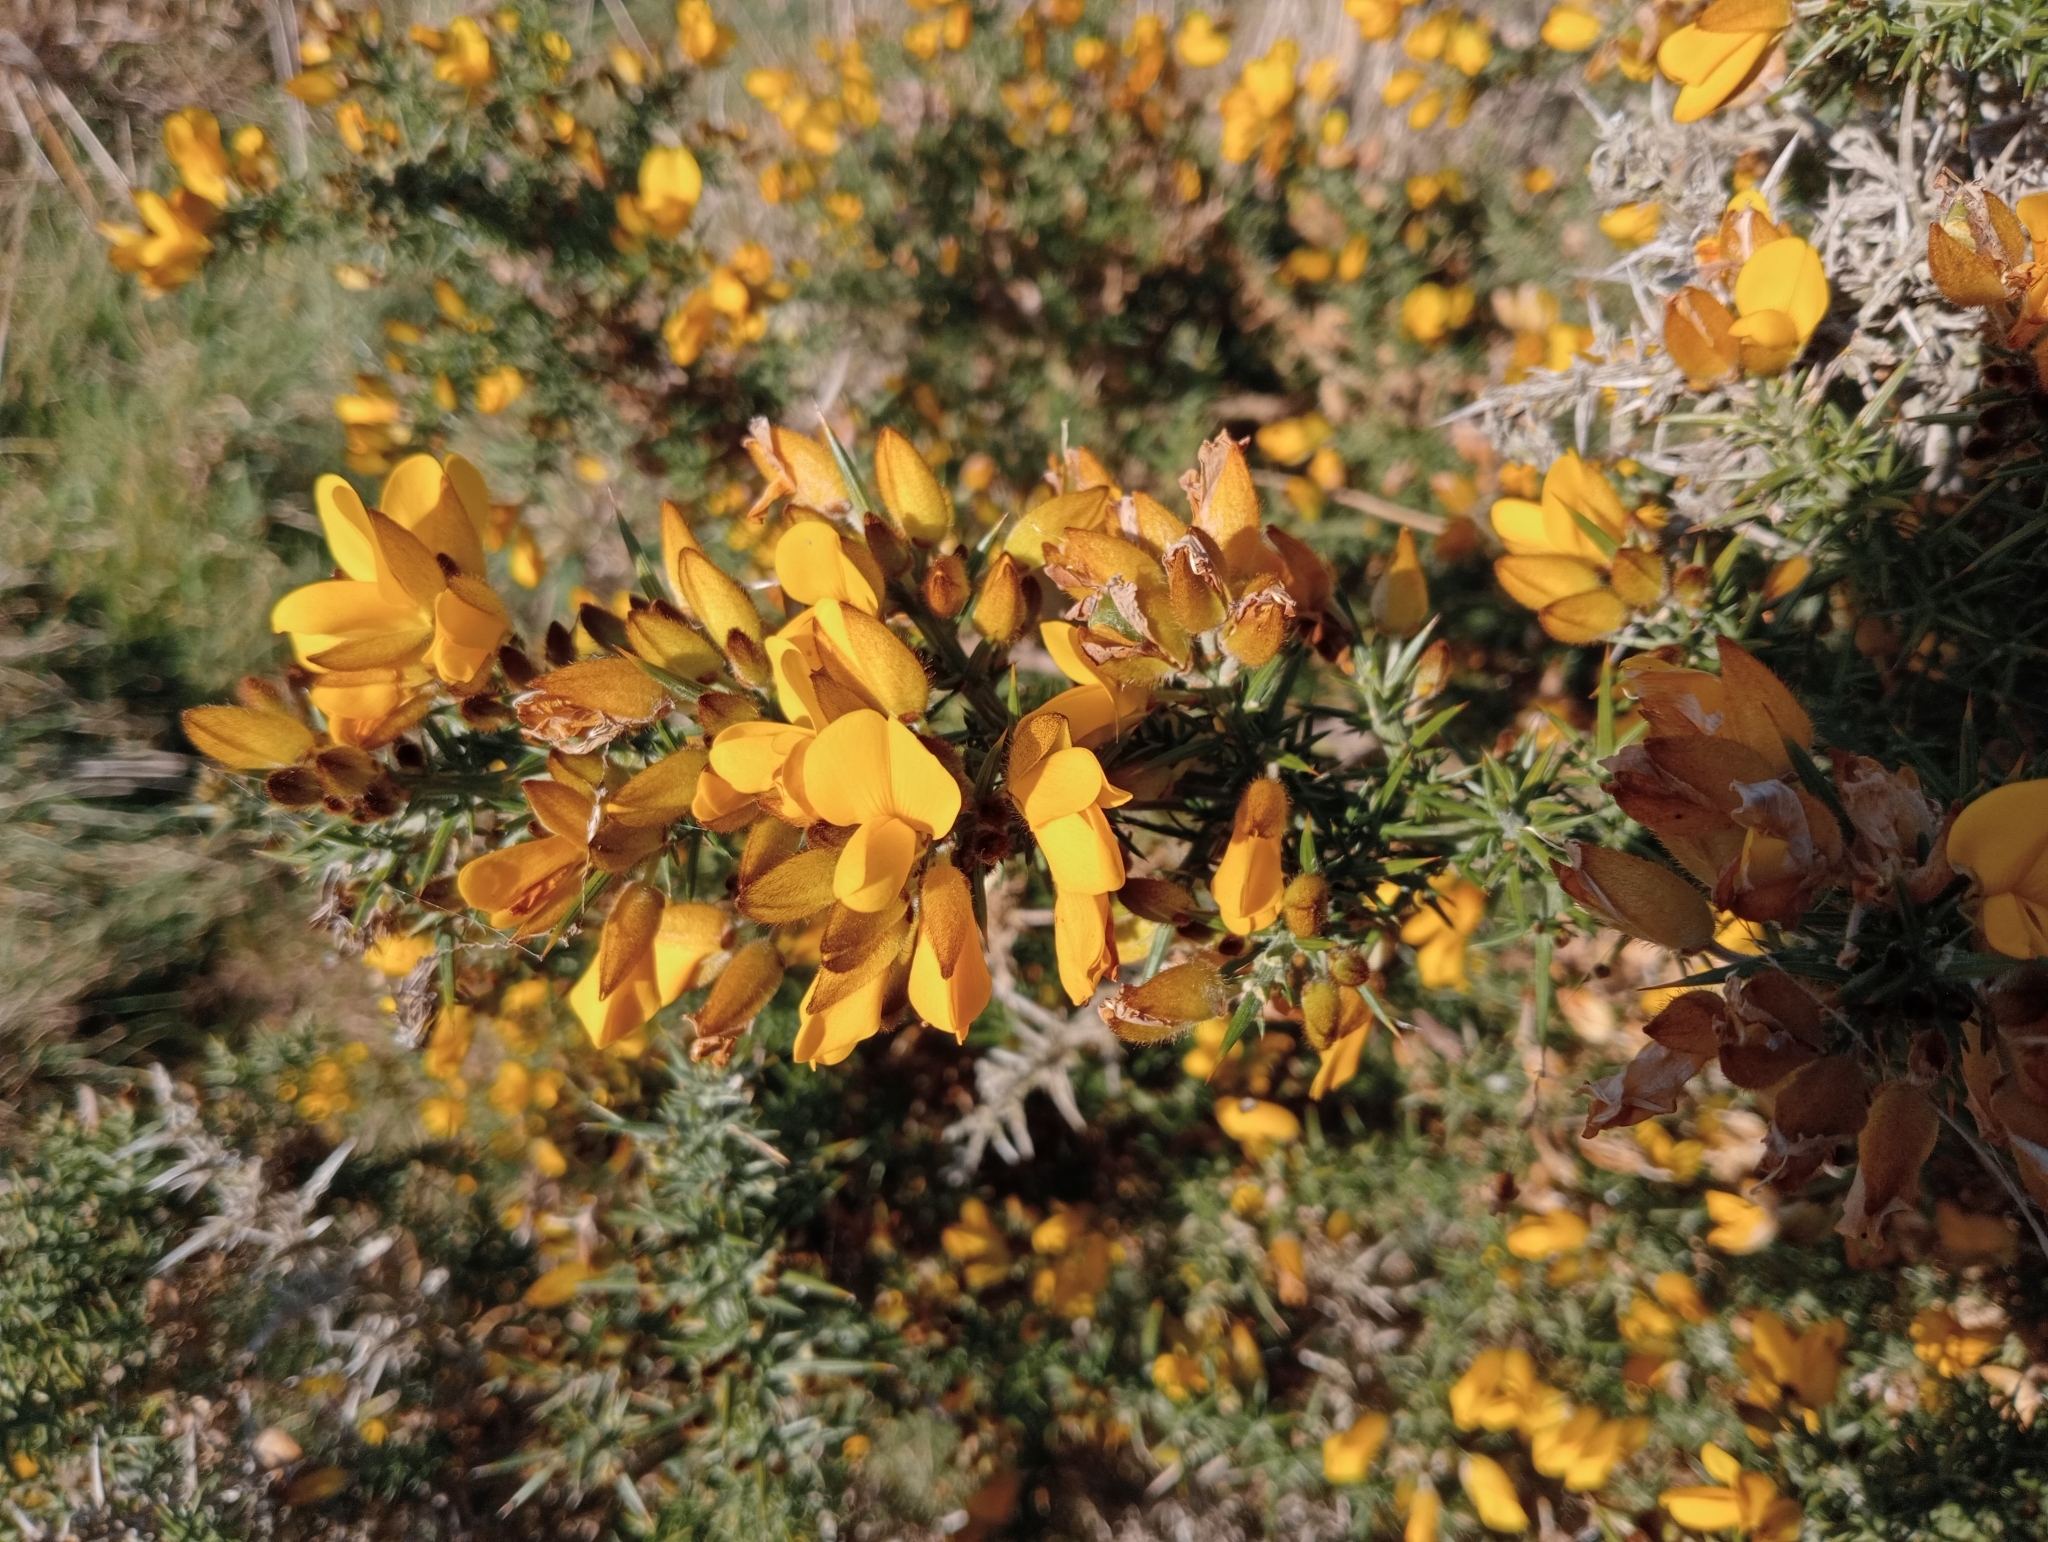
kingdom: Plantae
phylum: Tracheophyta
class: Magnoliopsida
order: Fabales
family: Fabaceae
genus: Ulex
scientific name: Ulex europaeus
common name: Common gorse
